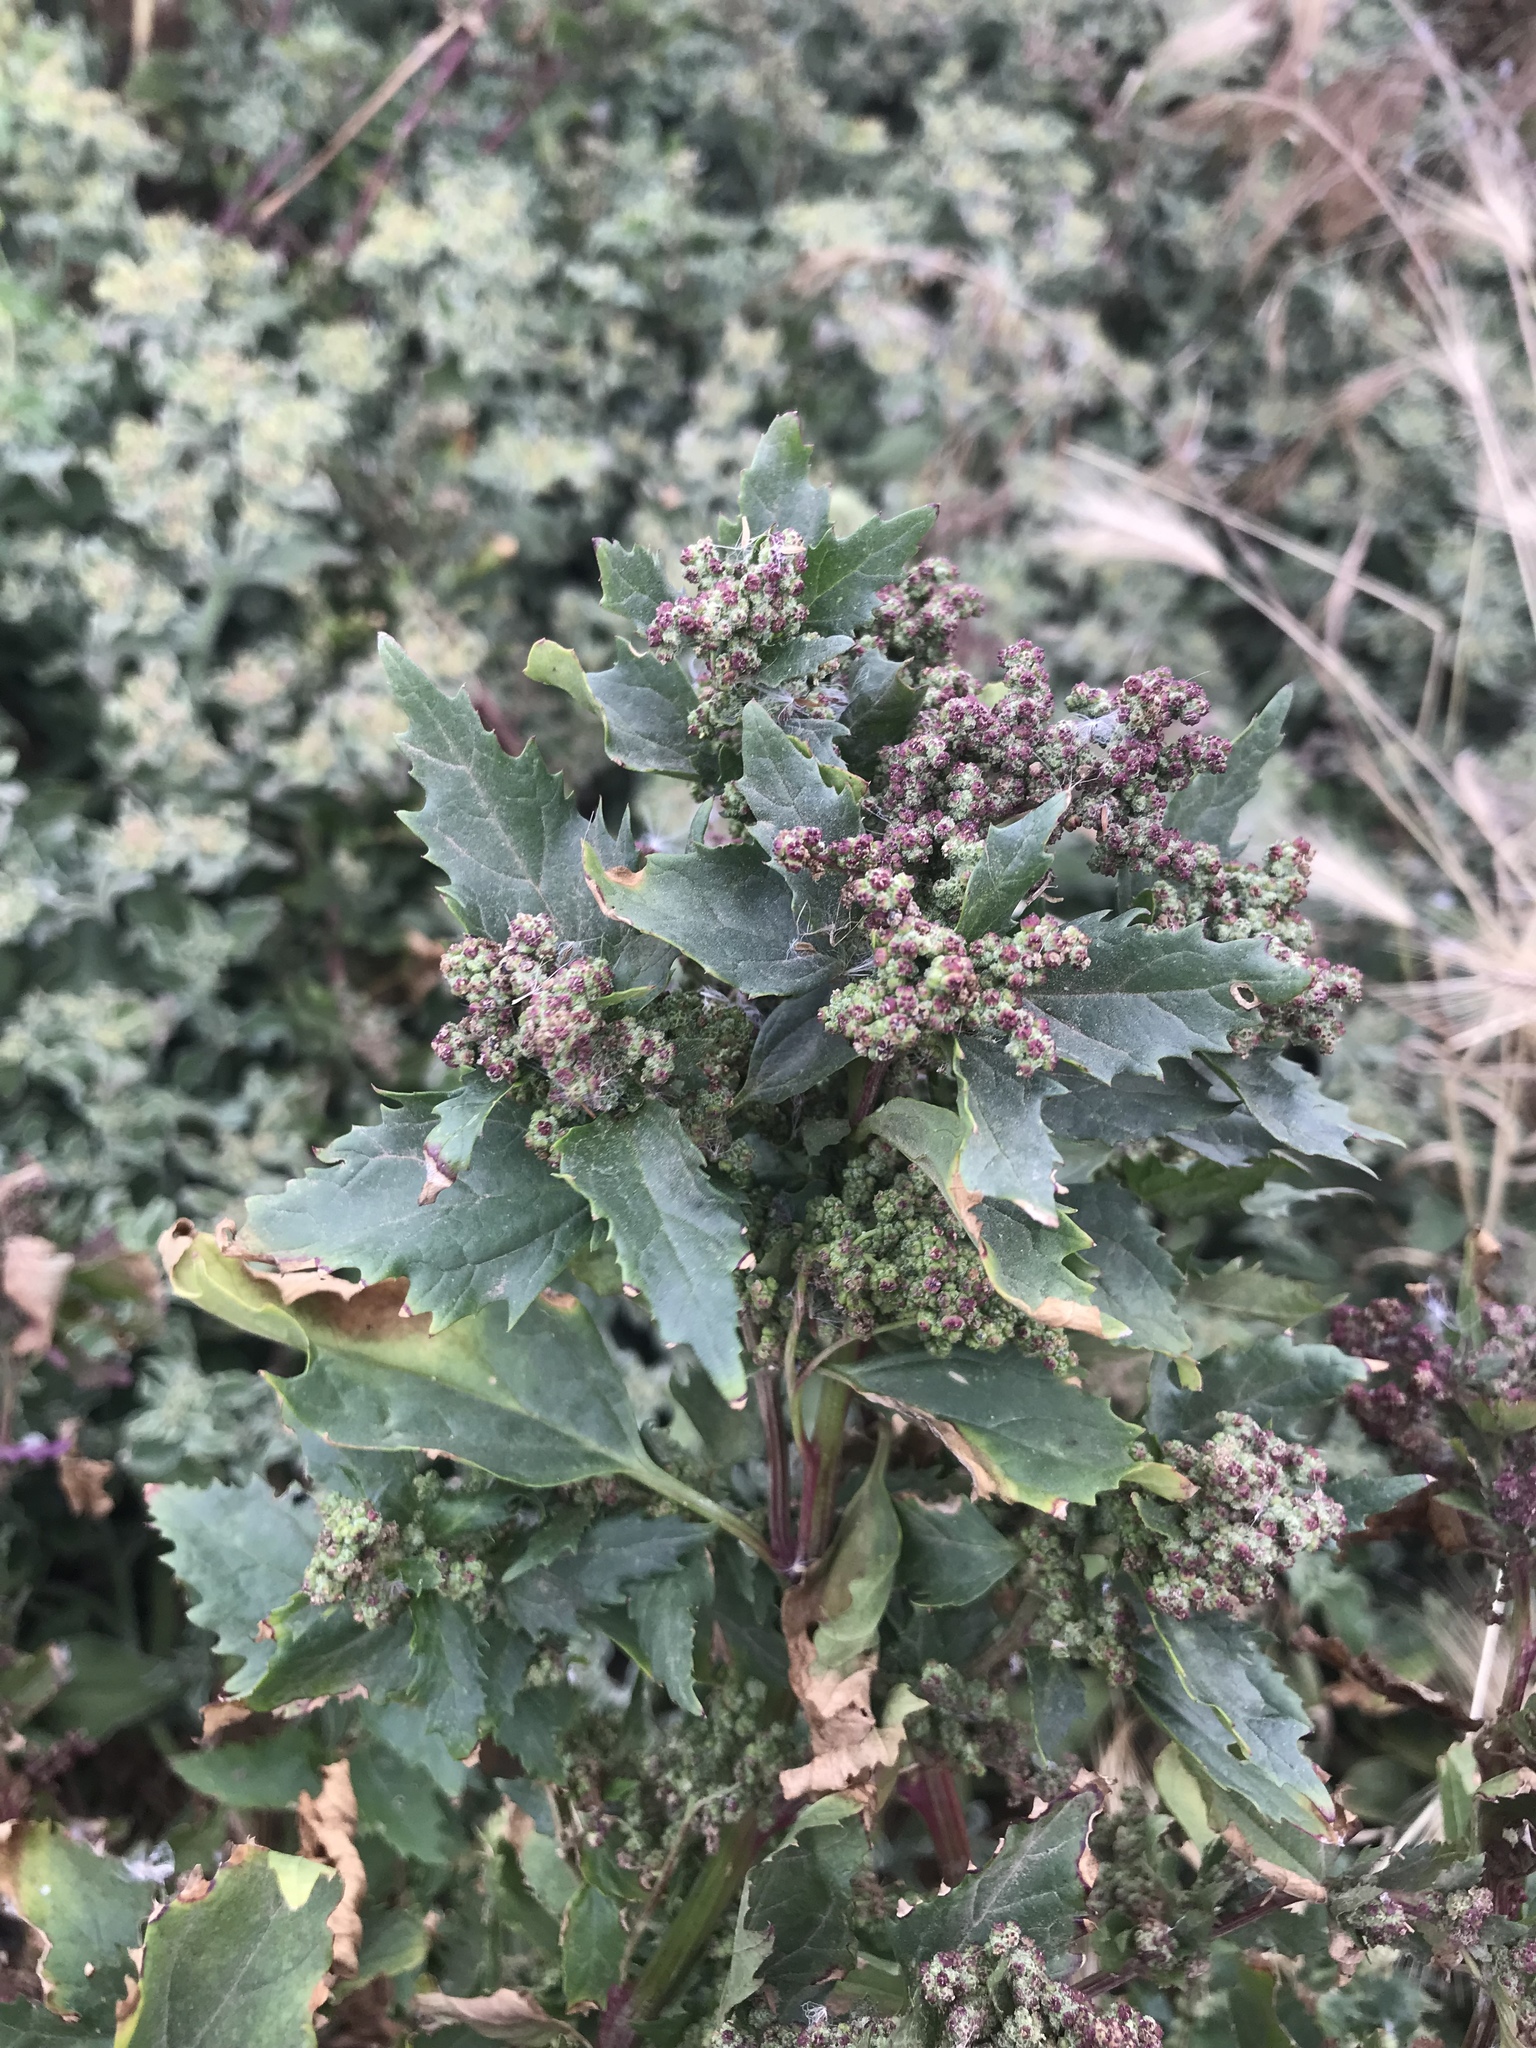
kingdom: Plantae
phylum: Tracheophyta
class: Magnoliopsida
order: Caryophyllales
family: Amaranthaceae
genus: Chenopodiastrum
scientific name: Chenopodiastrum murale
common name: Sowbane
